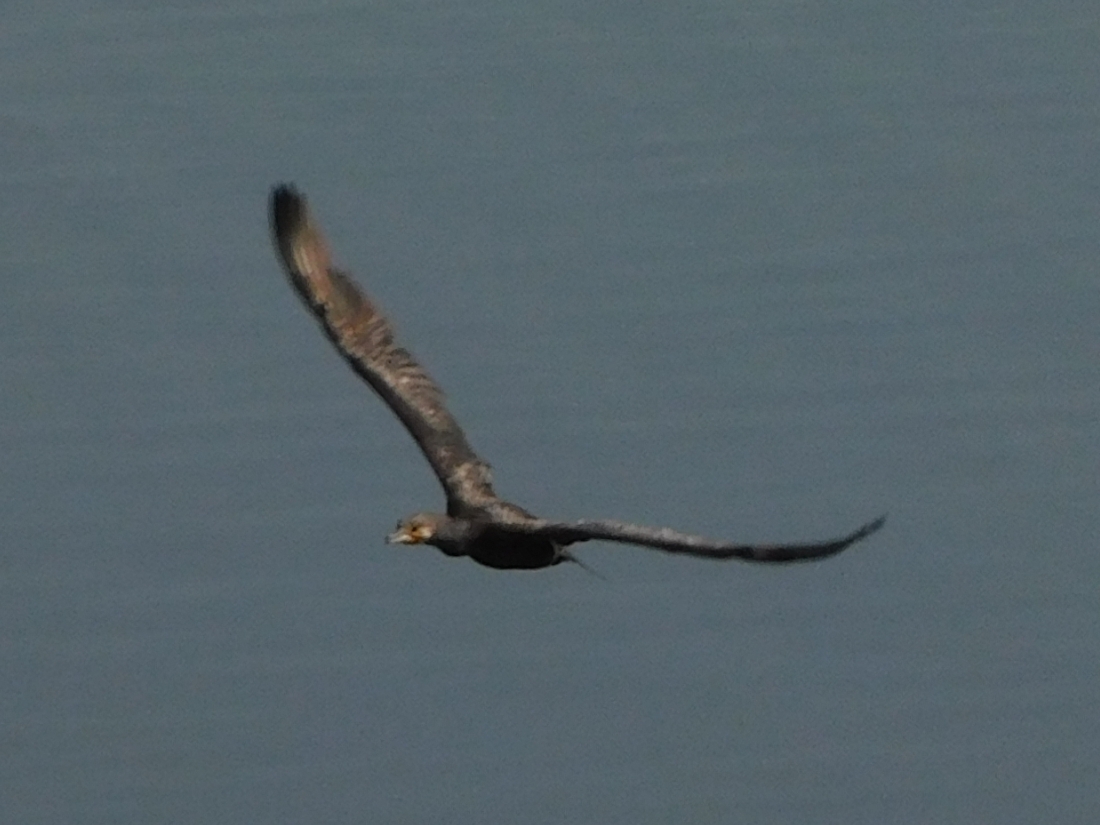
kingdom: Animalia
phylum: Chordata
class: Aves
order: Suliformes
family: Phalacrocoracidae
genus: Phalacrocorax
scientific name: Phalacrocorax carbo
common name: Great cormorant
